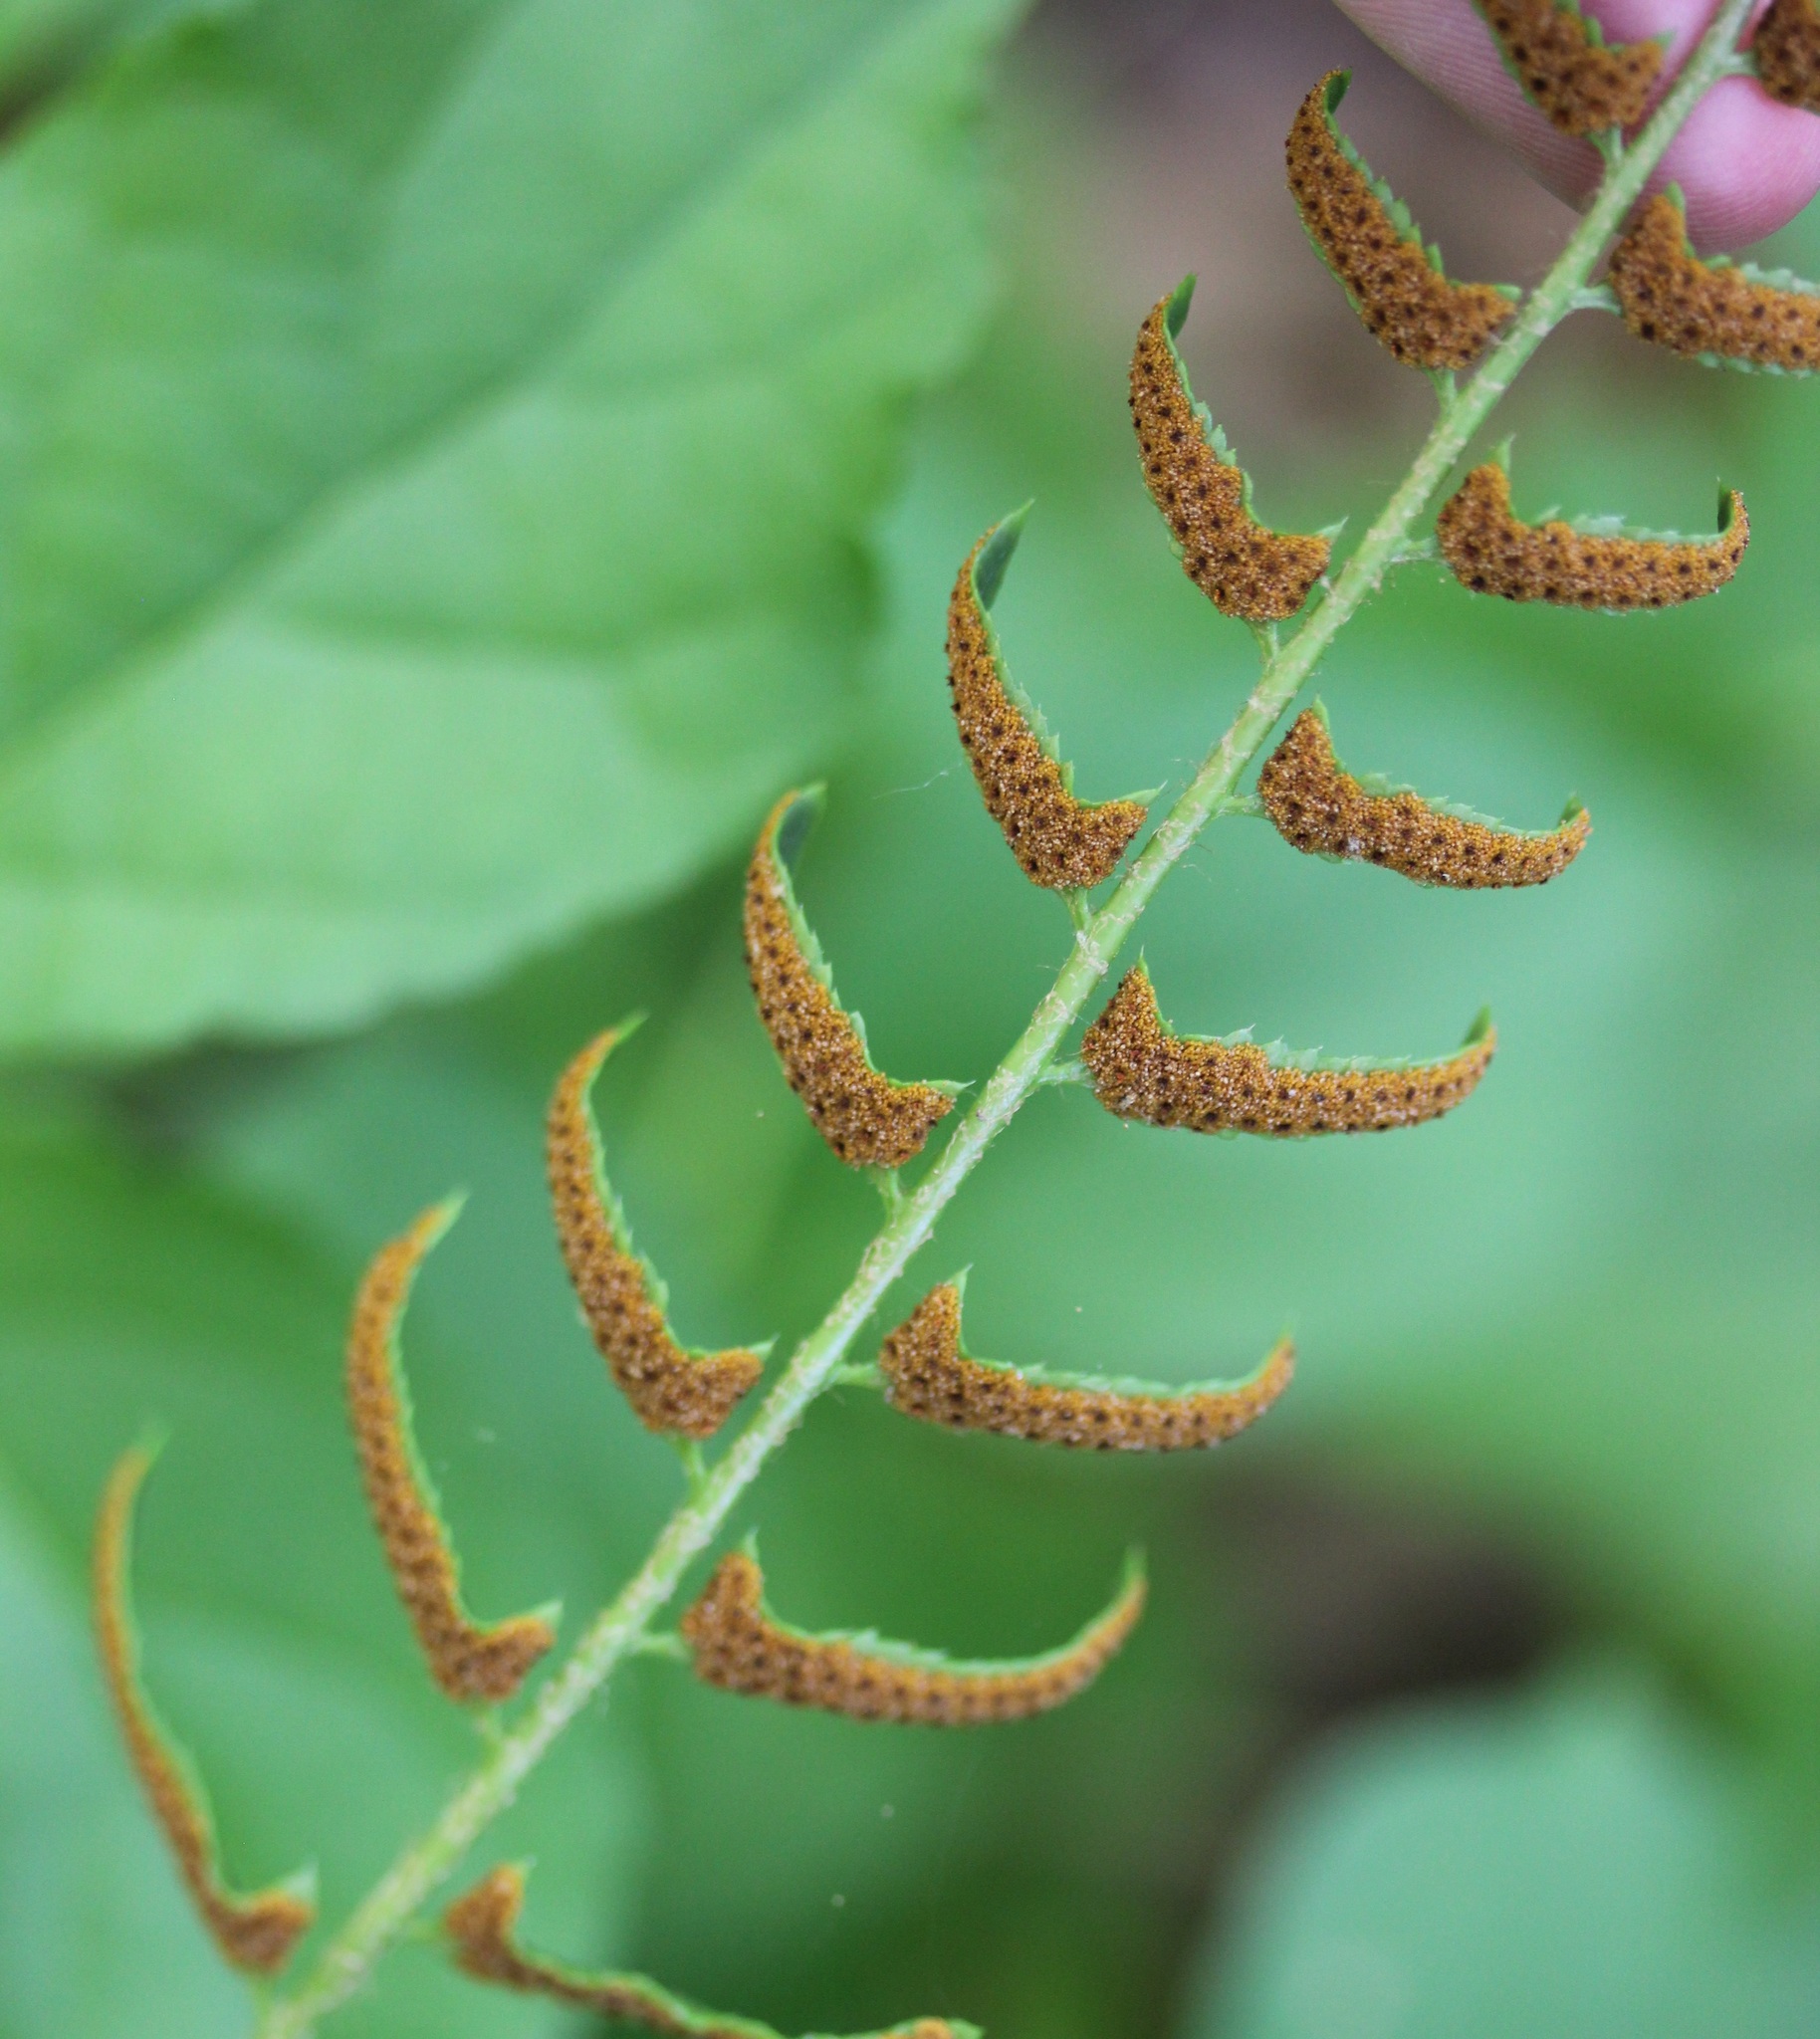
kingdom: Plantae
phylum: Tracheophyta
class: Polypodiopsida
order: Polypodiales
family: Dryopteridaceae
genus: Polystichum
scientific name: Polystichum acrostichoides
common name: Christmas fern
